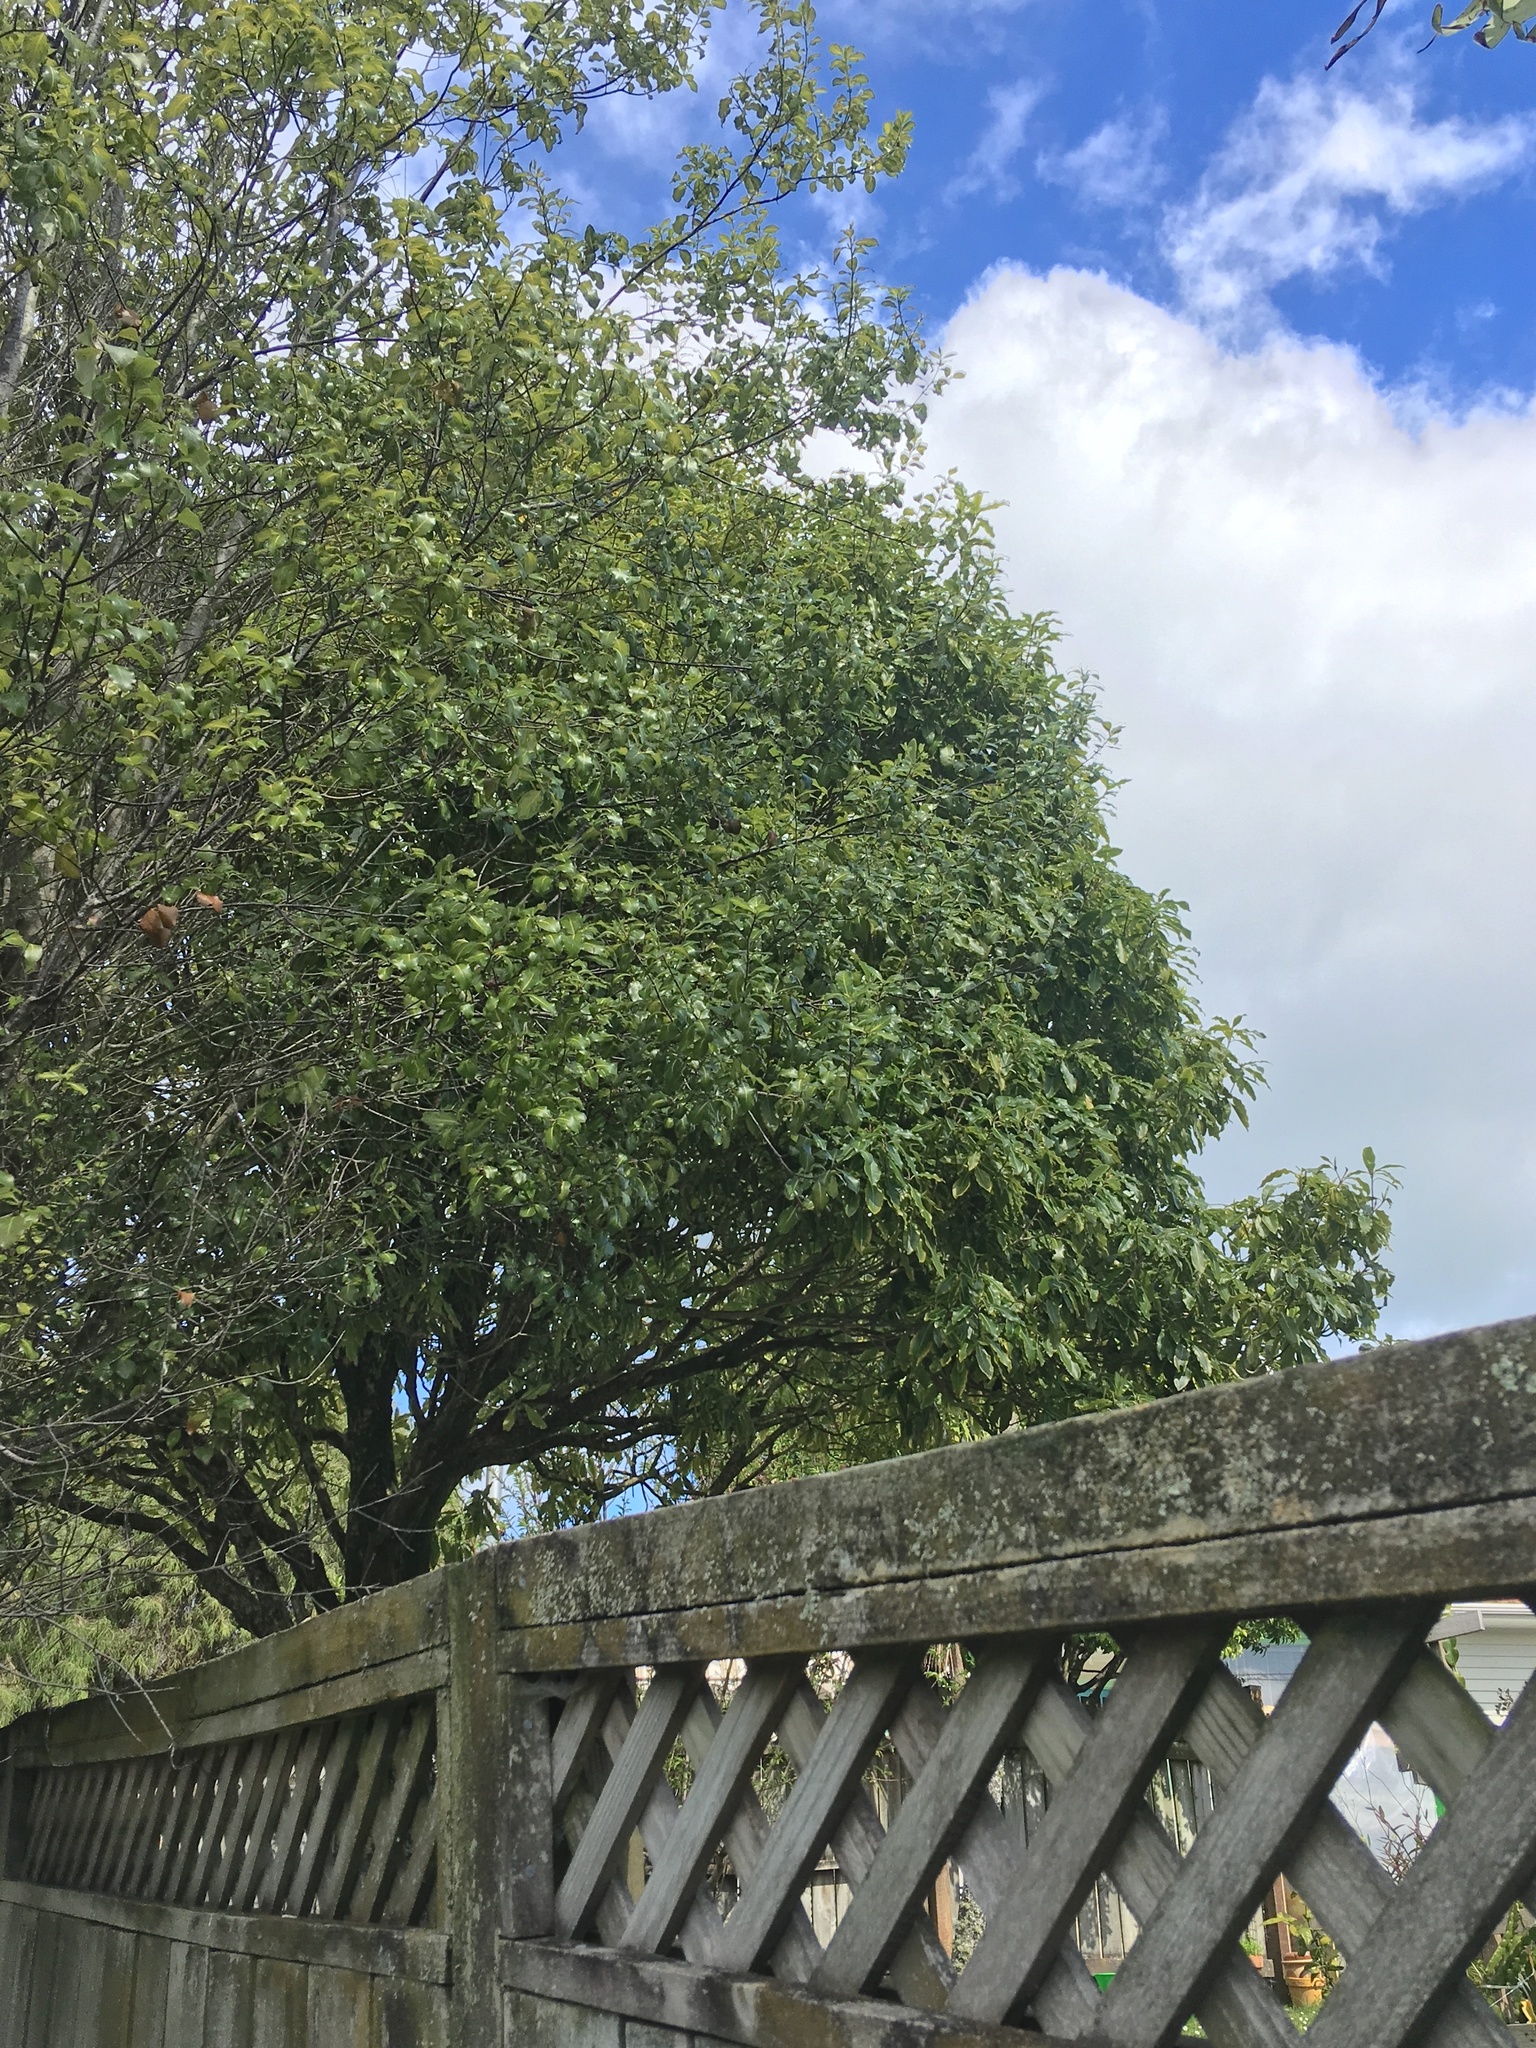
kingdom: Plantae
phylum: Tracheophyta
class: Magnoliopsida
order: Apiales
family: Pittosporaceae
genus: Pittosporum
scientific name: Pittosporum eugenioides
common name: Lemonwood
